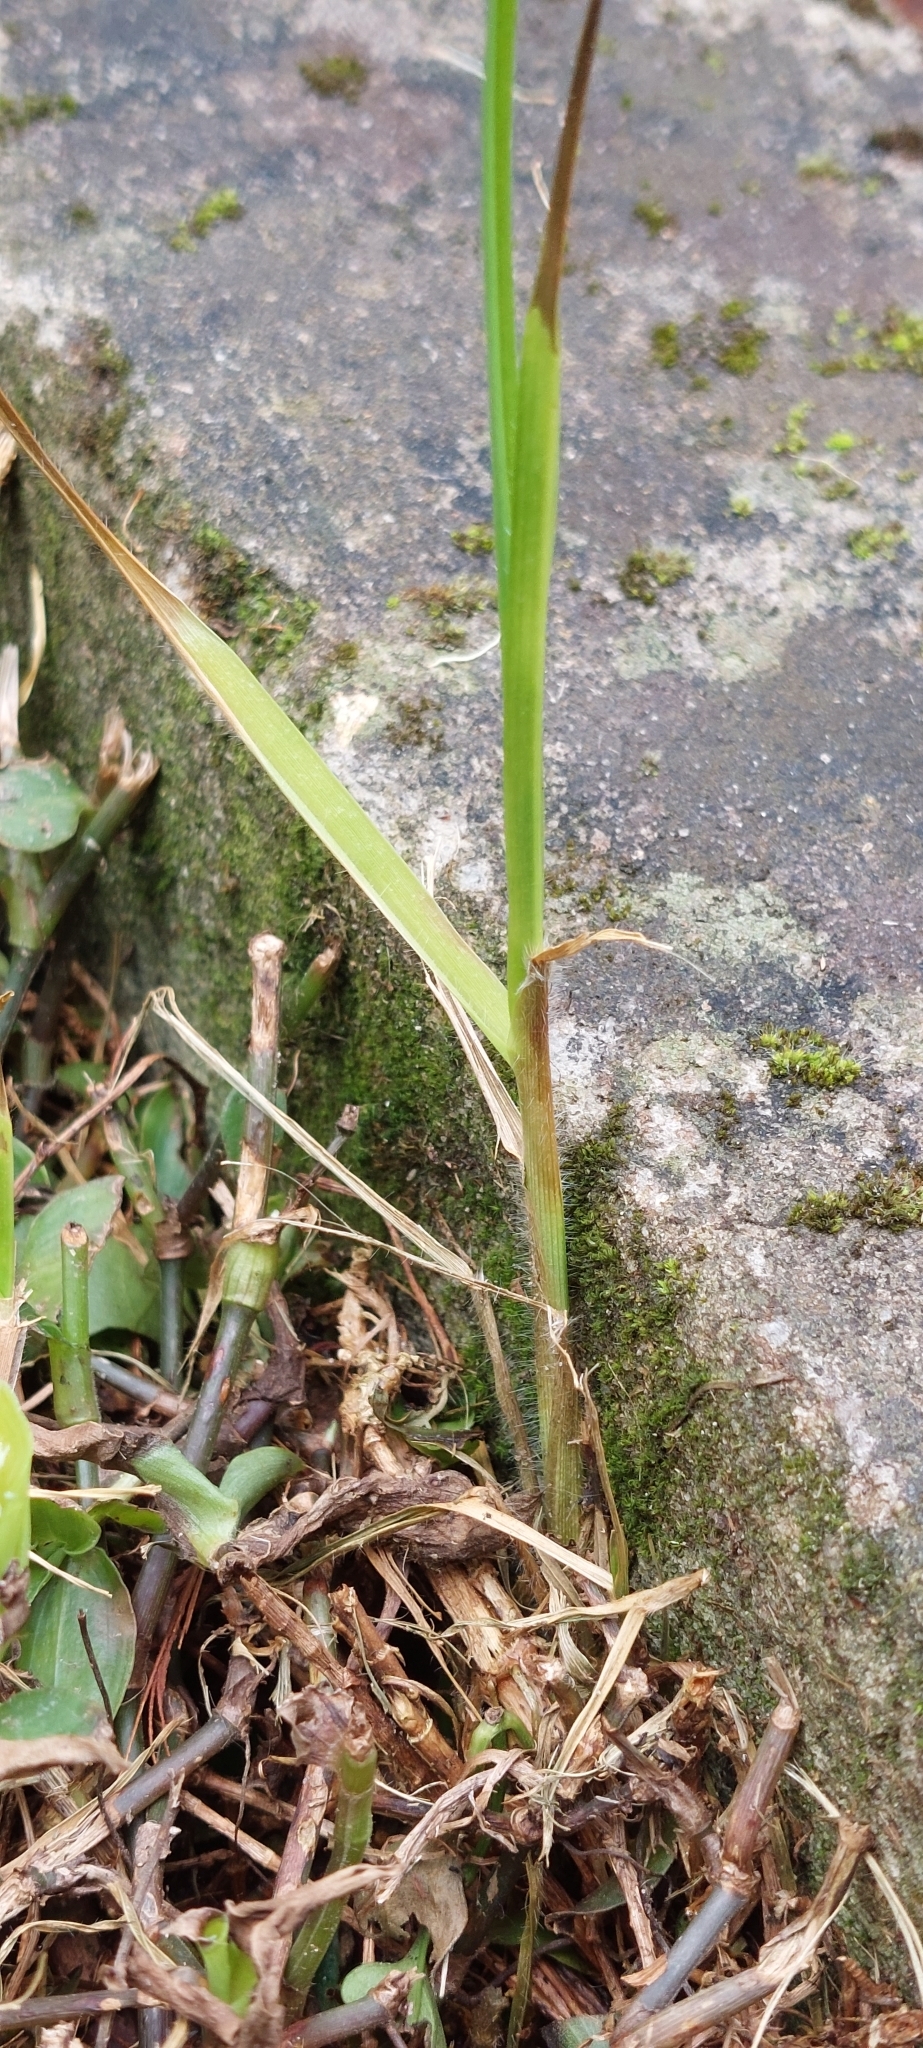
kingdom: Plantae
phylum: Tracheophyta
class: Liliopsida
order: Poales
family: Poaceae
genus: Cenchrus
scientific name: Cenchrus clandestinus
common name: Kikuyugrass
